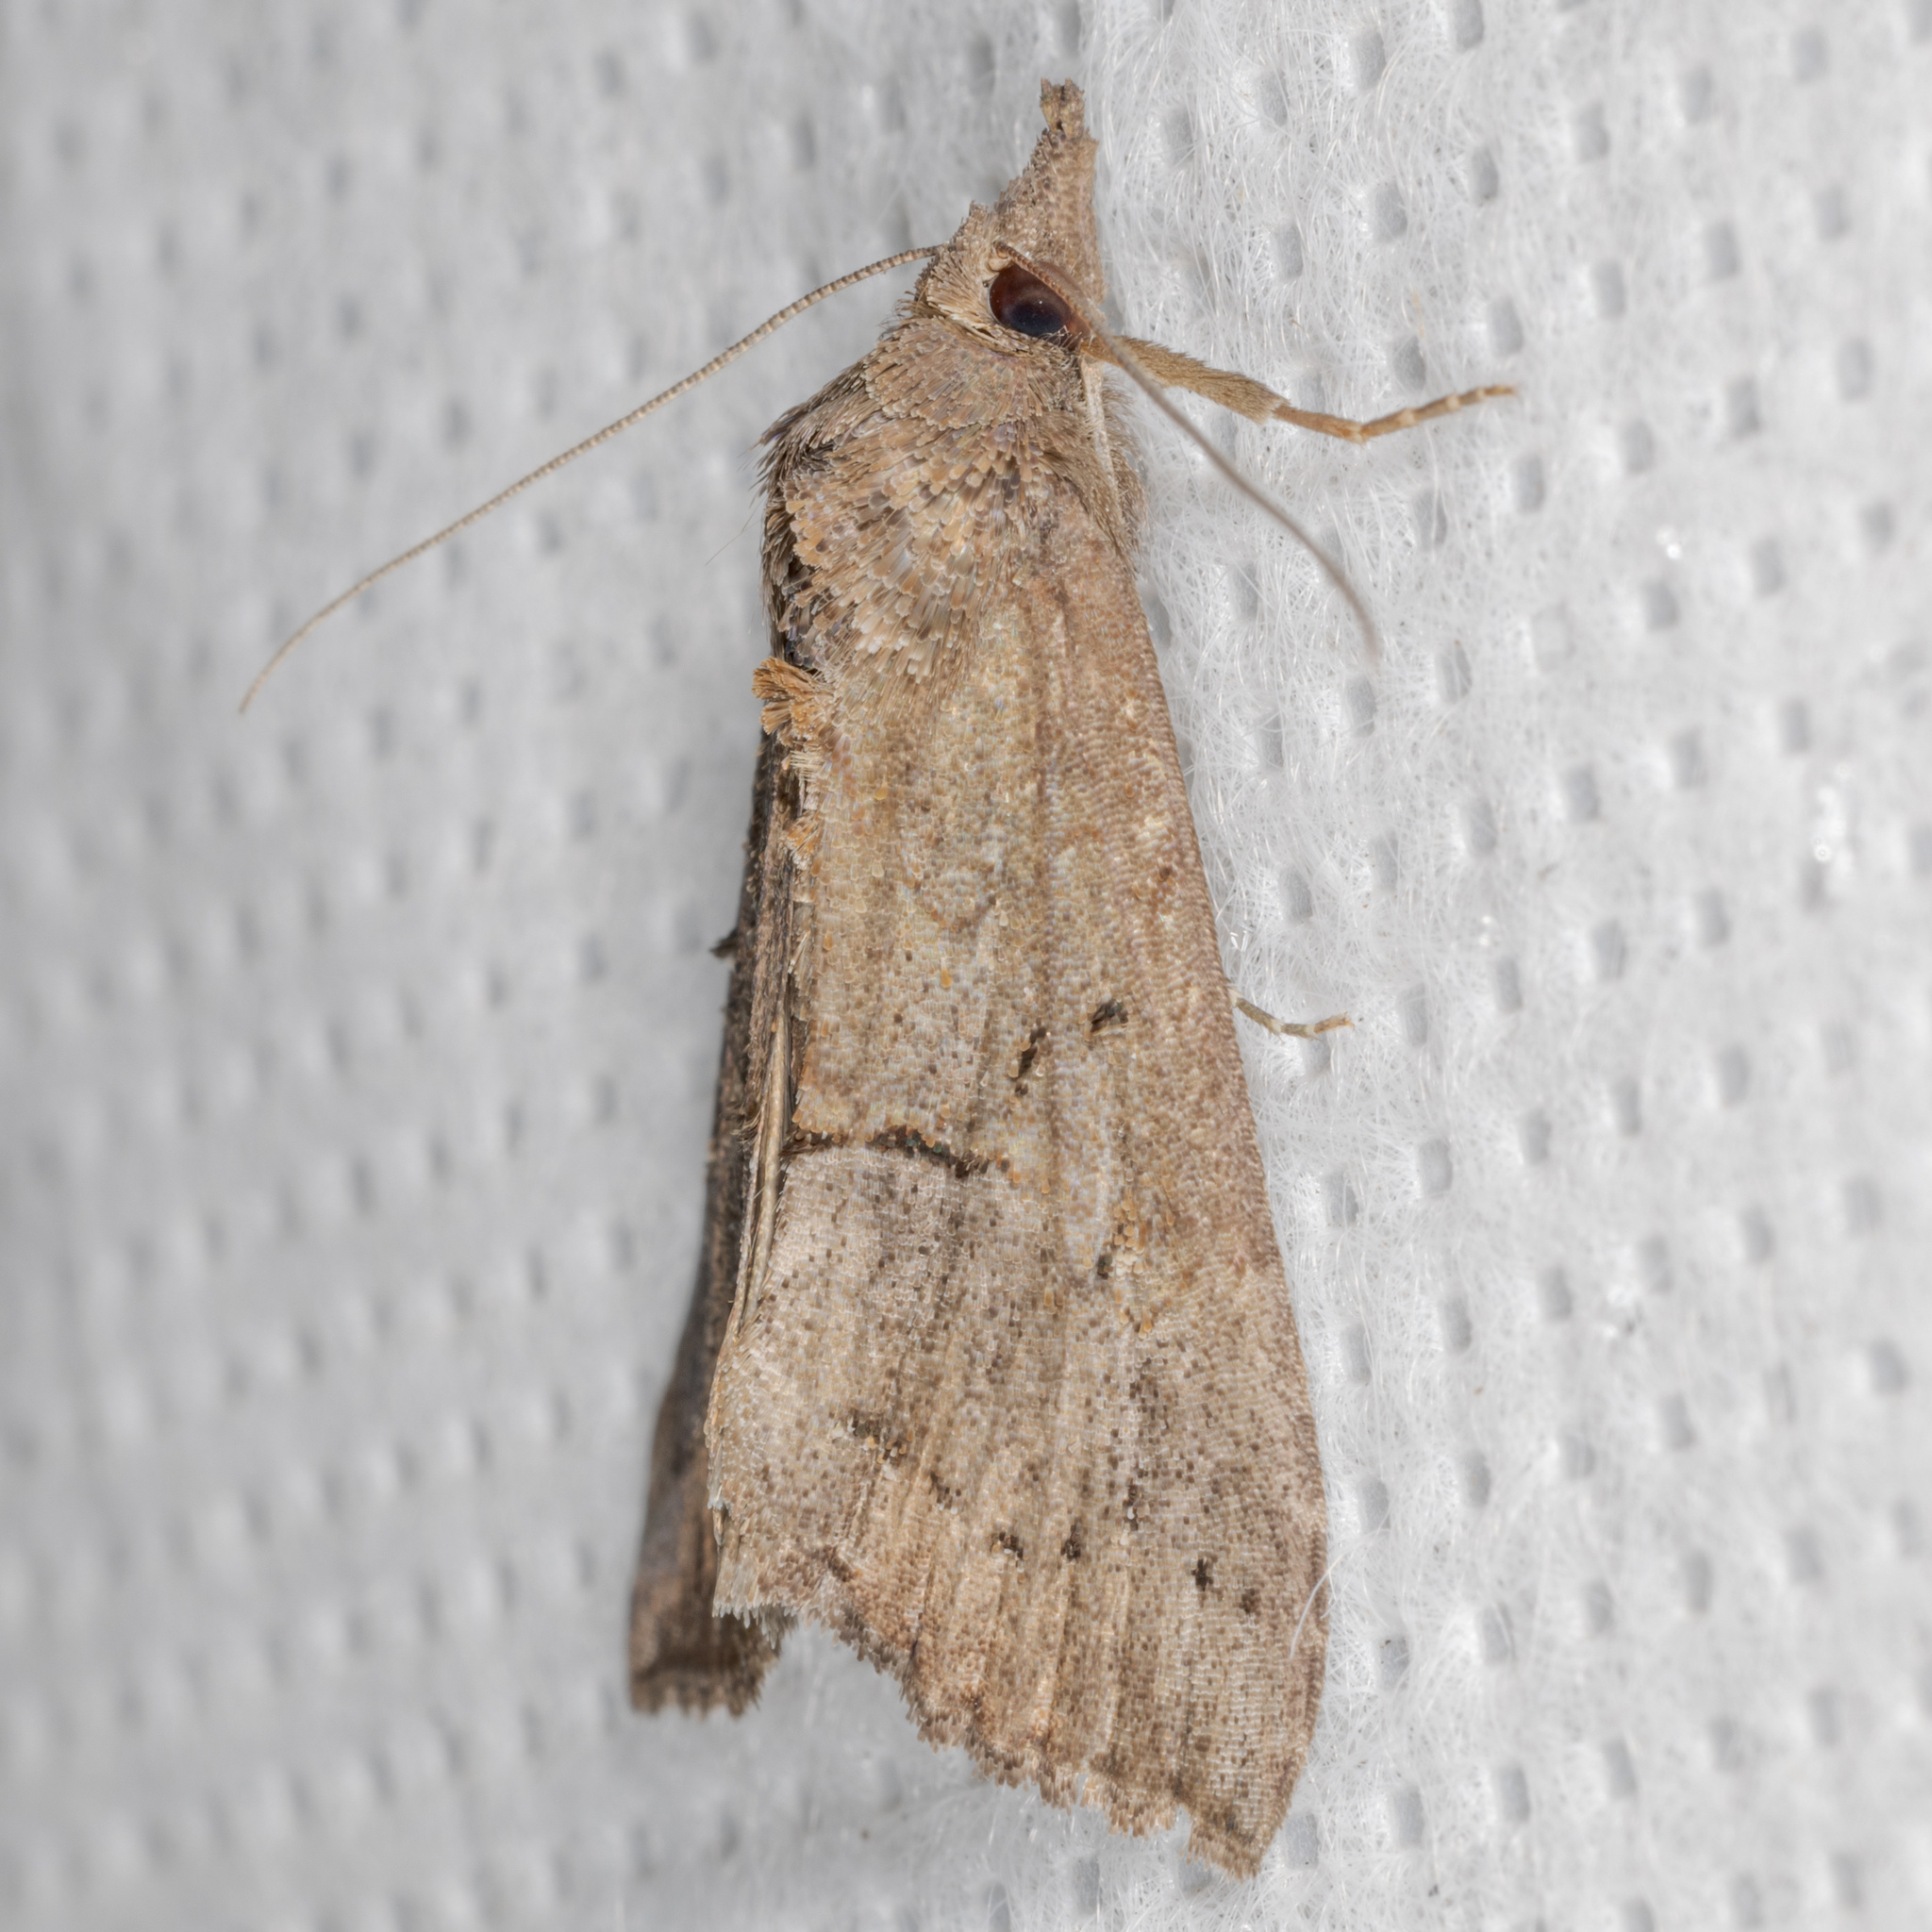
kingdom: Animalia
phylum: Arthropoda
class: Insecta
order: Lepidoptera
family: Erebidae
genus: Hypena
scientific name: Hypena scabra
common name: Green cloverworm
